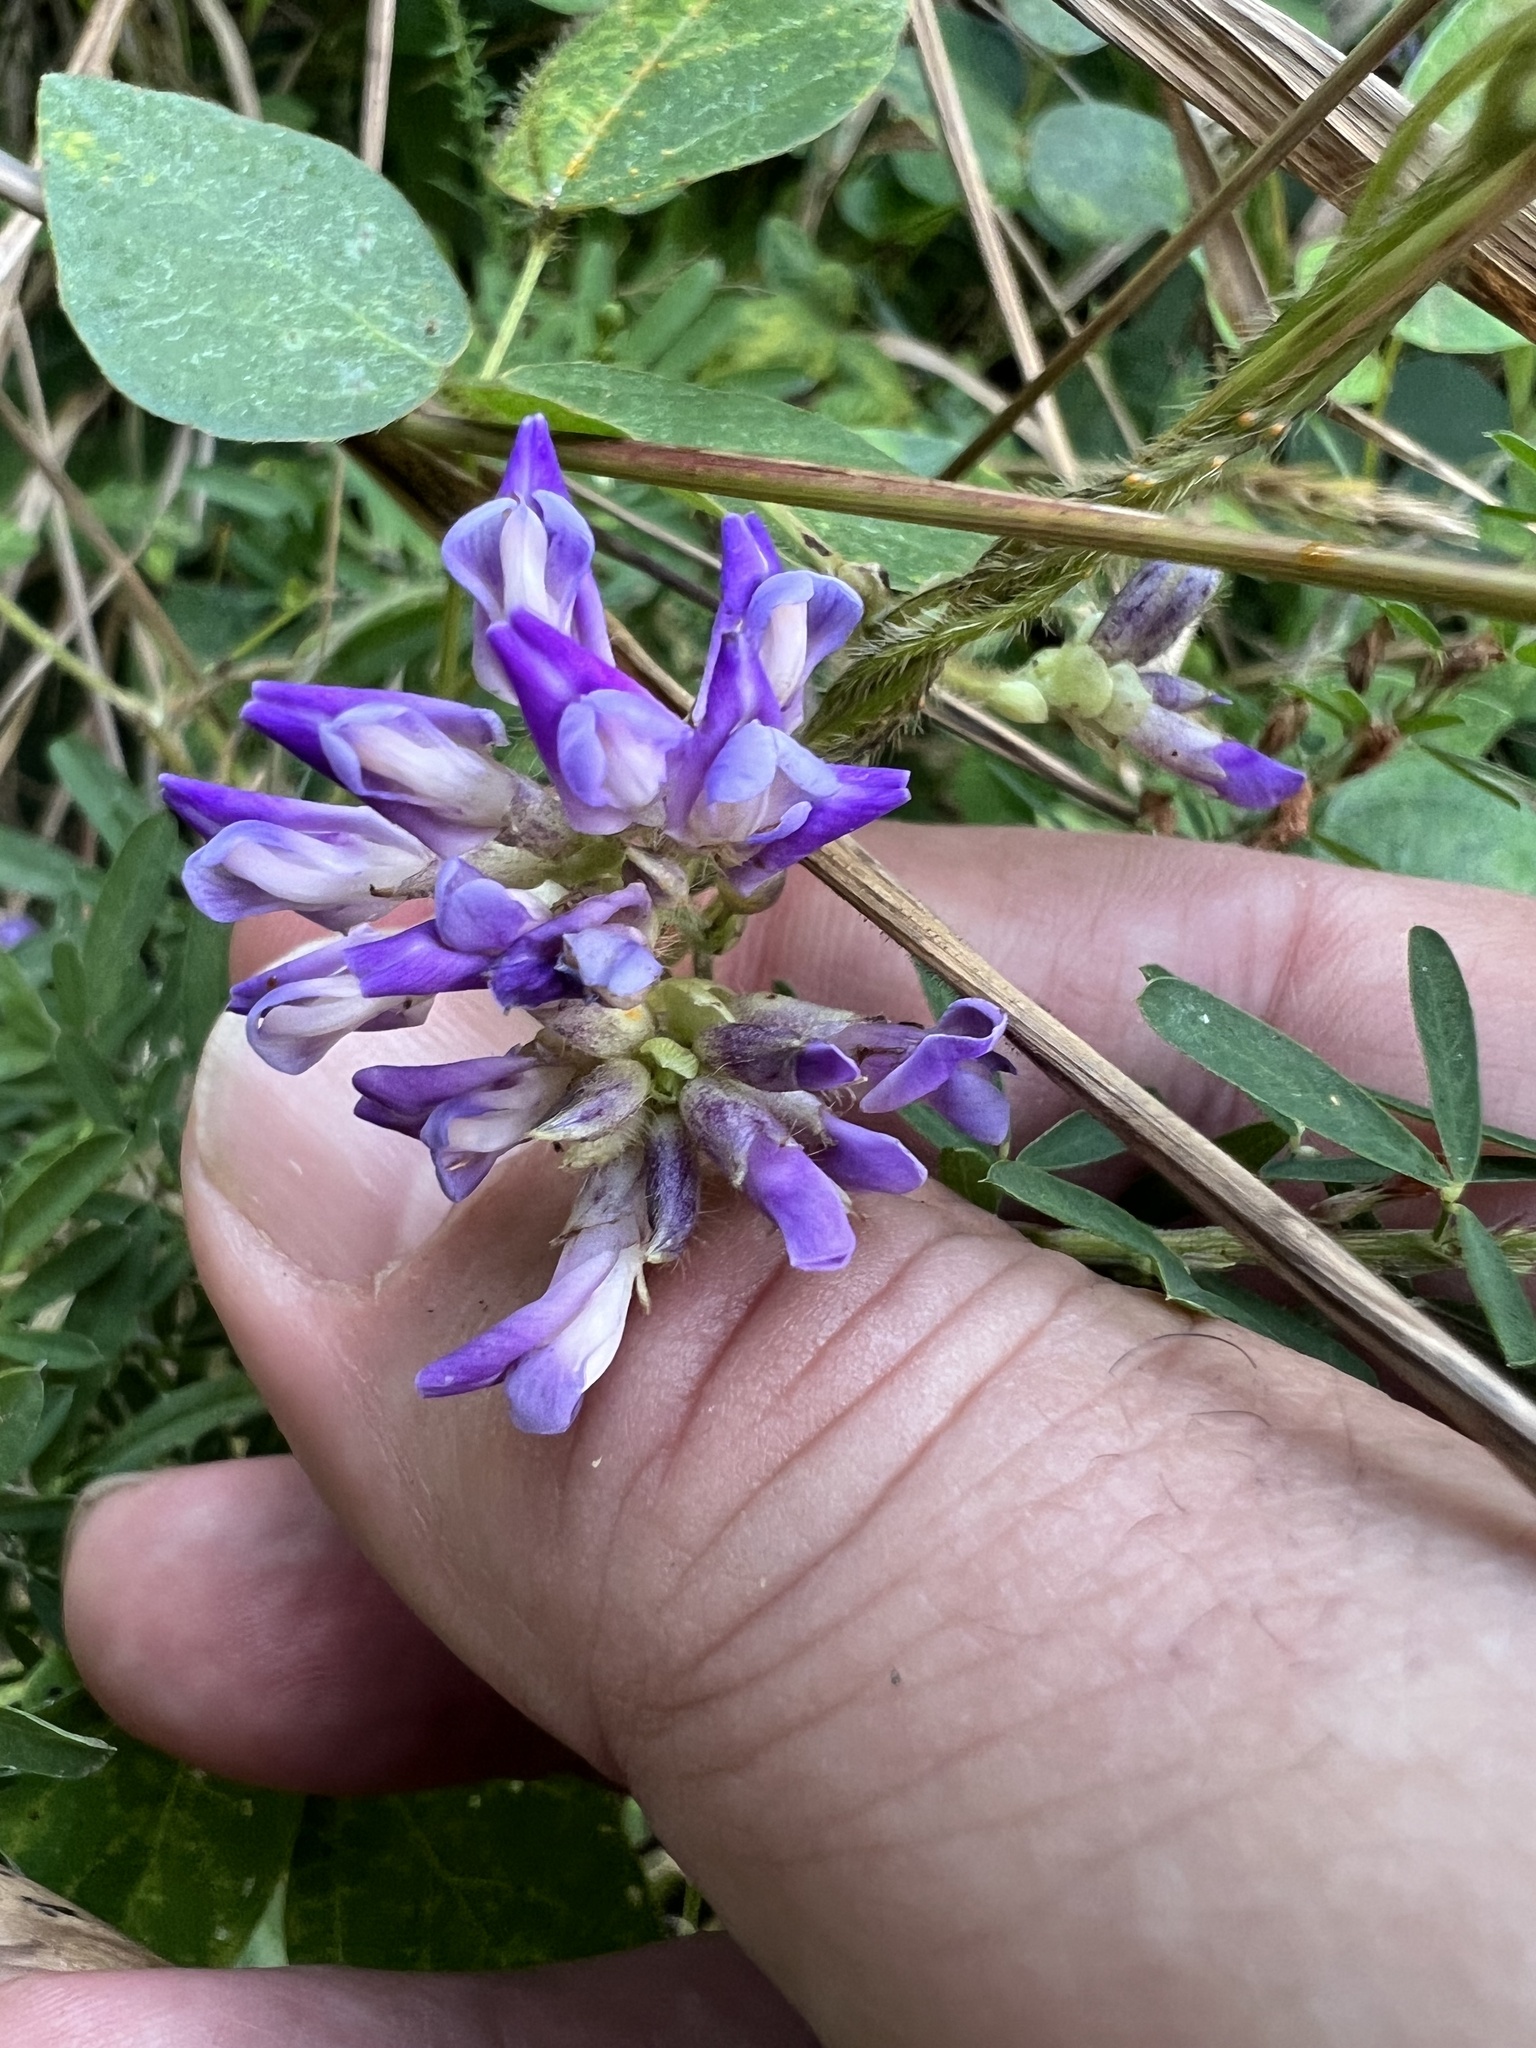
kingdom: Plantae
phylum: Tracheophyta
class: Magnoliopsida
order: Fabales
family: Fabaceae
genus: Amphicarpaea
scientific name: Amphicarpaea bracteata
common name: American hog peanut
